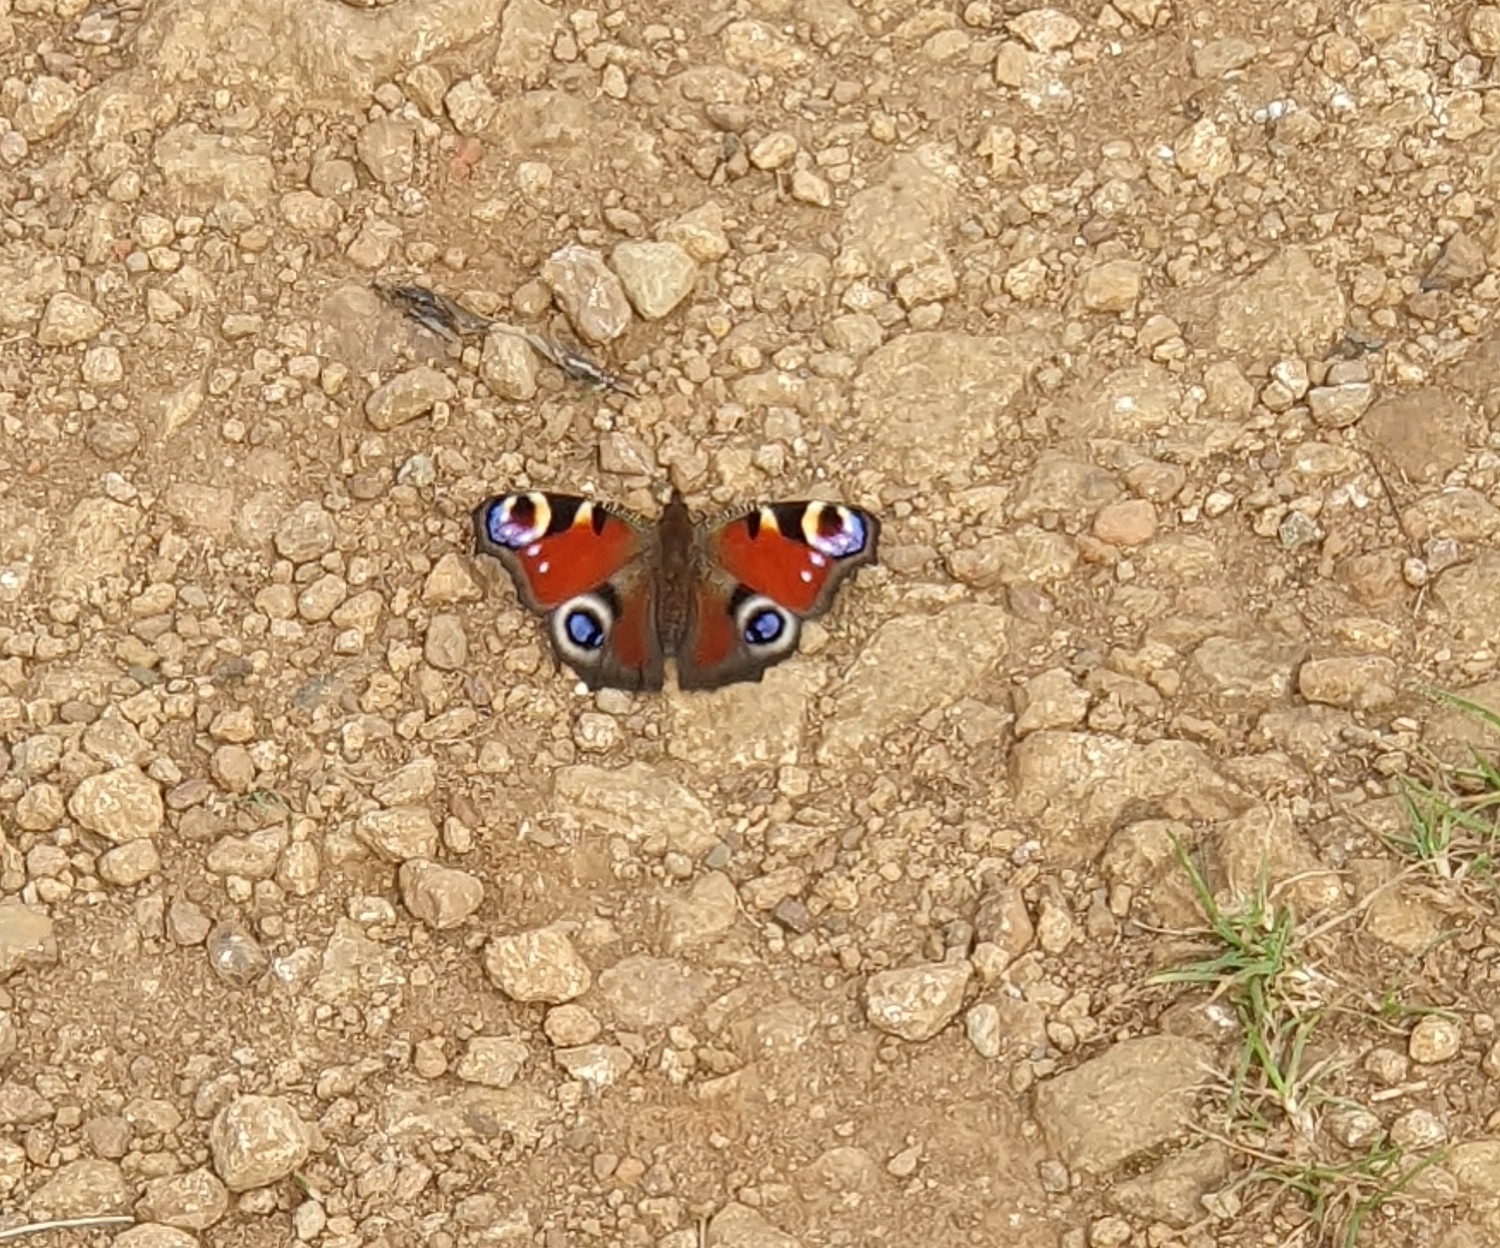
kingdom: Animalia
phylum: Arthropoda
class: Insecta
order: Lepidoptera
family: Nymphalidae
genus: Aglais
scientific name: Aglais io
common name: Peacock
